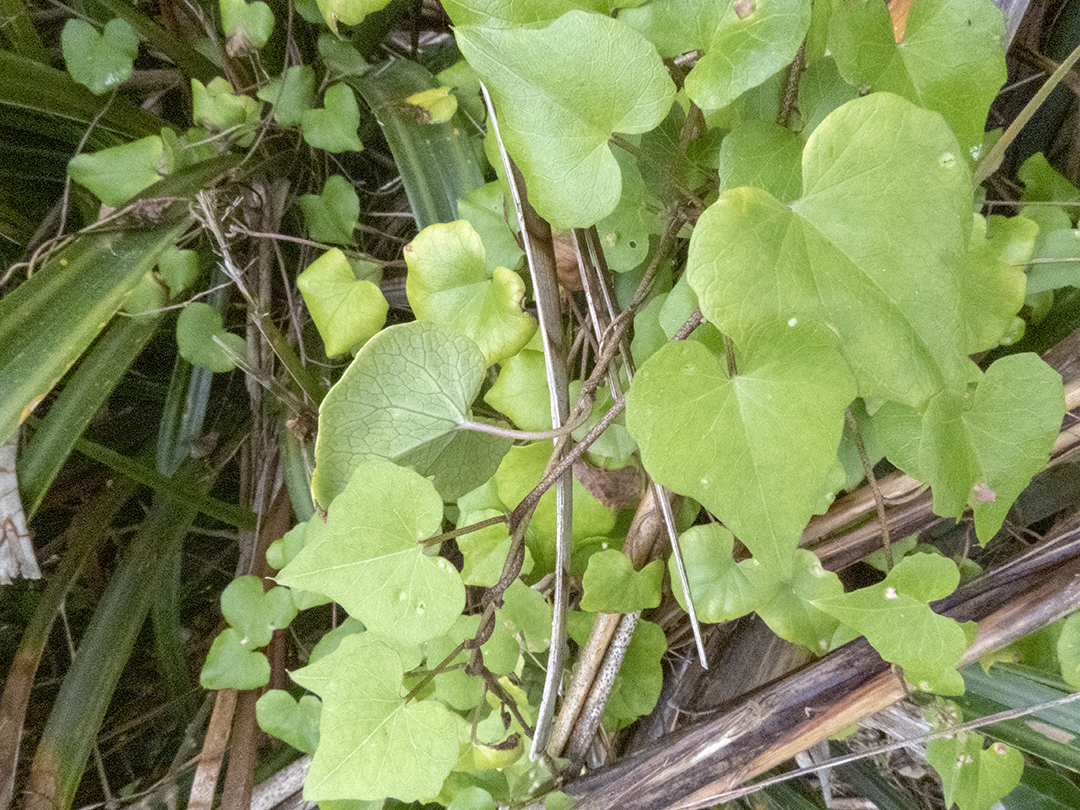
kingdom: Plantae
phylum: Tracheophyta
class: Magnoliopsida
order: Solanales
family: Convolvulaceae
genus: Calystegia
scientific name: Calystegia tuguriorum
